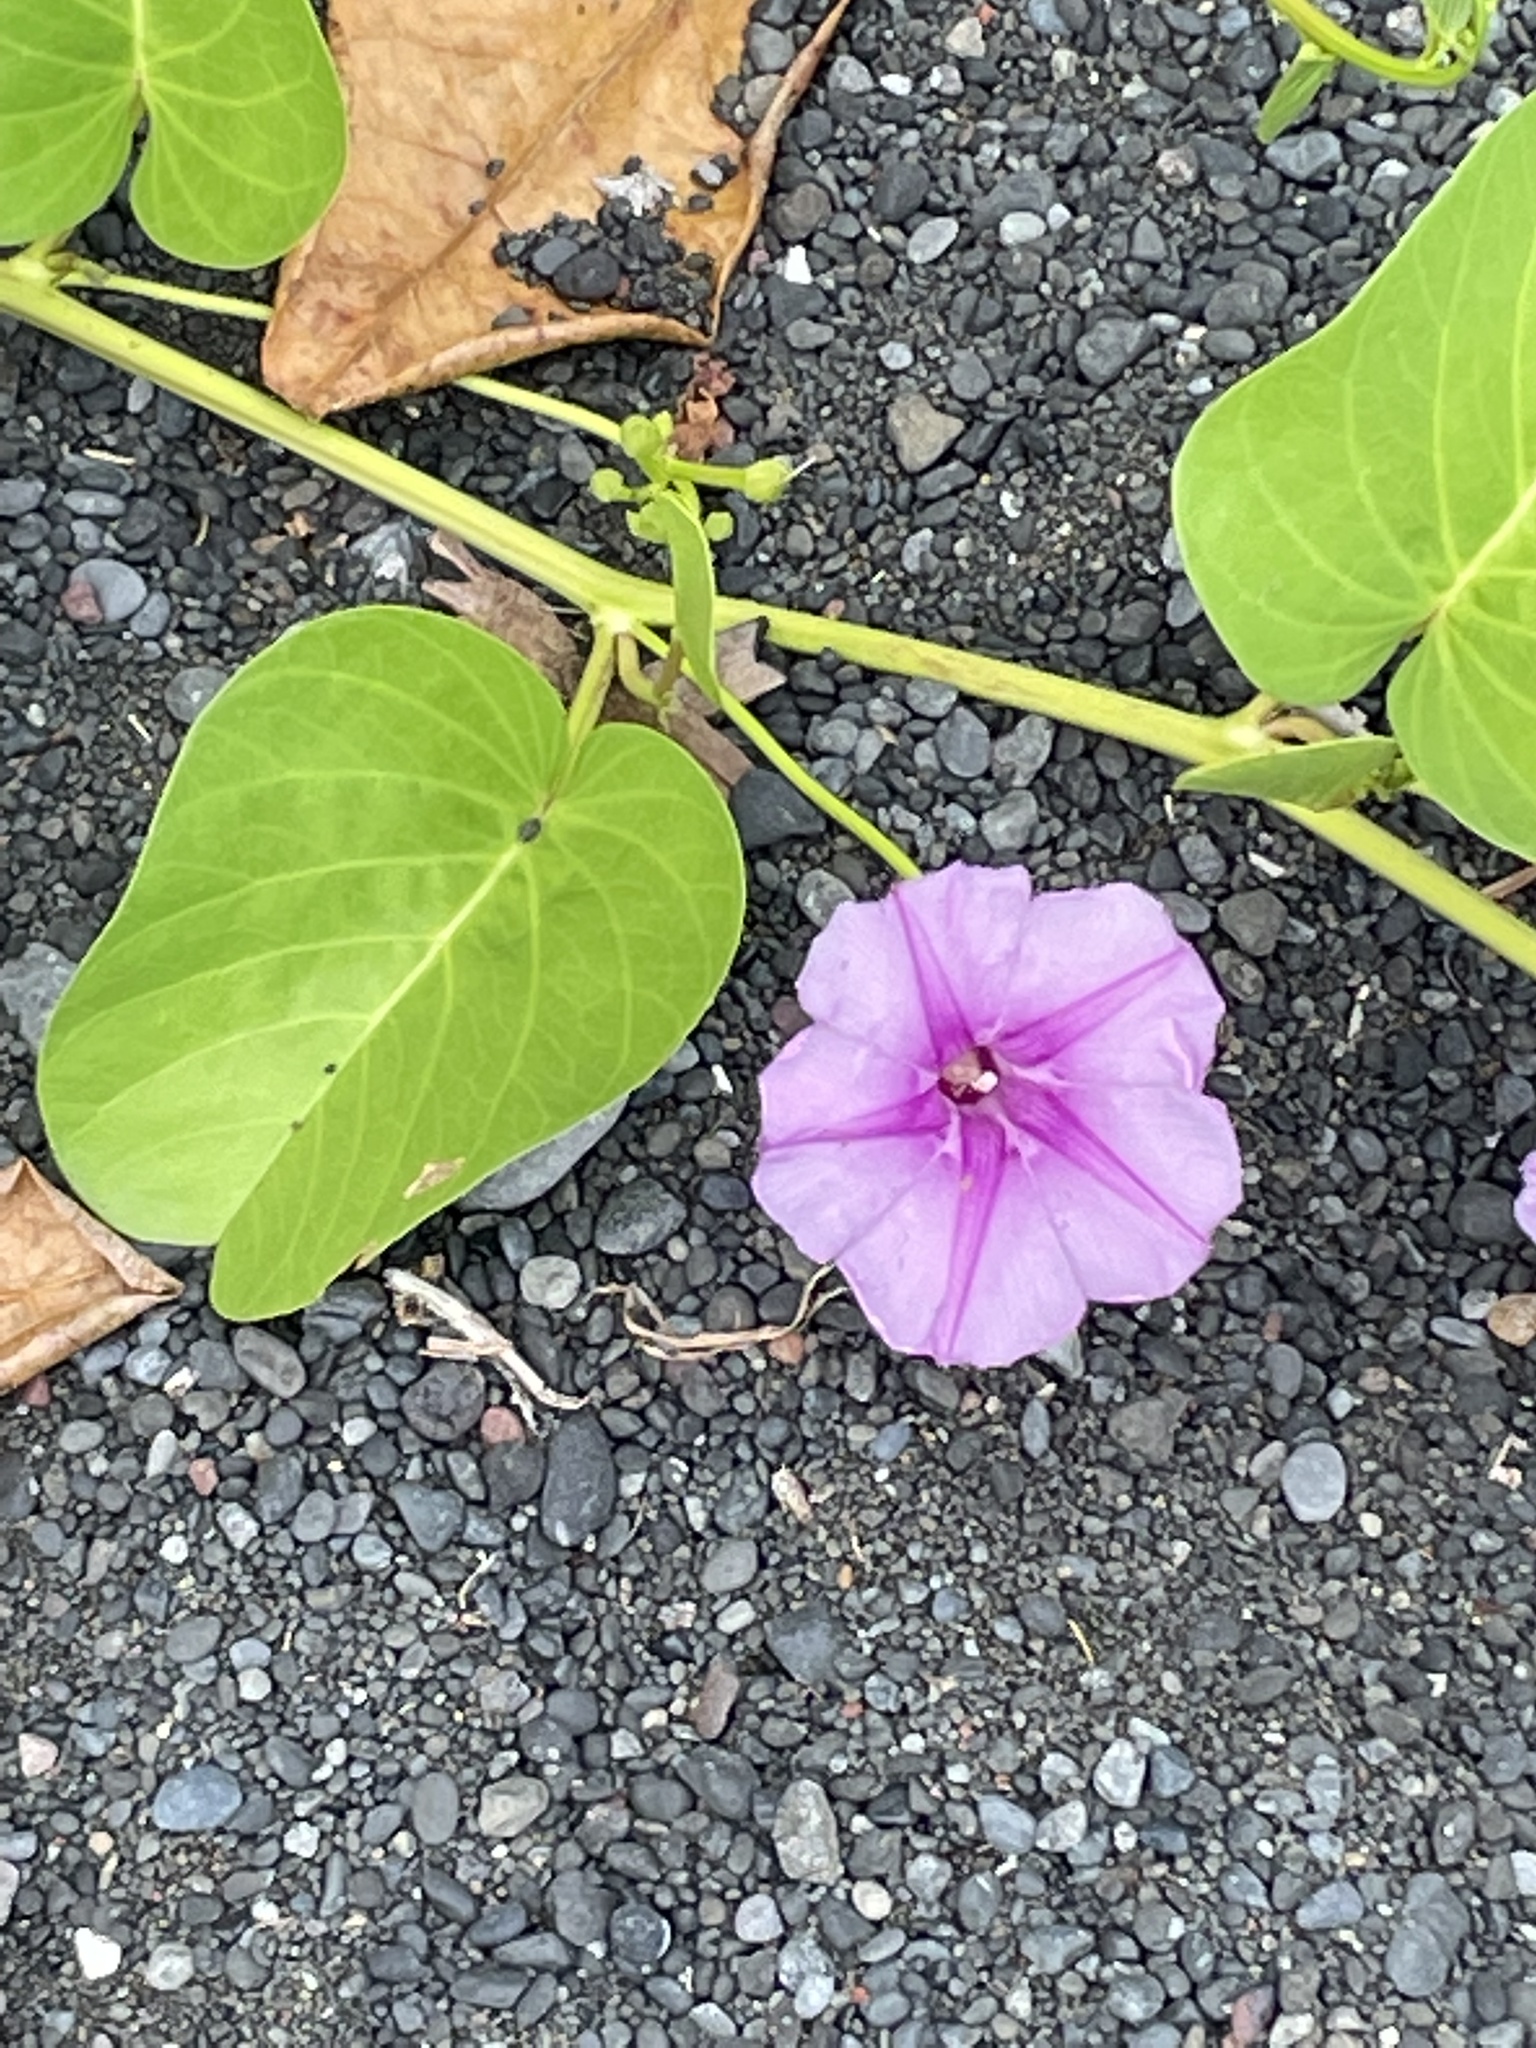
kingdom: Plantae
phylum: Tracheophyta
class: Magnoliopsida
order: Solanales
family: Convolvulaceae
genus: Ipomoea
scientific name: Ipomoea pes-caprae
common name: Beach morning glory
